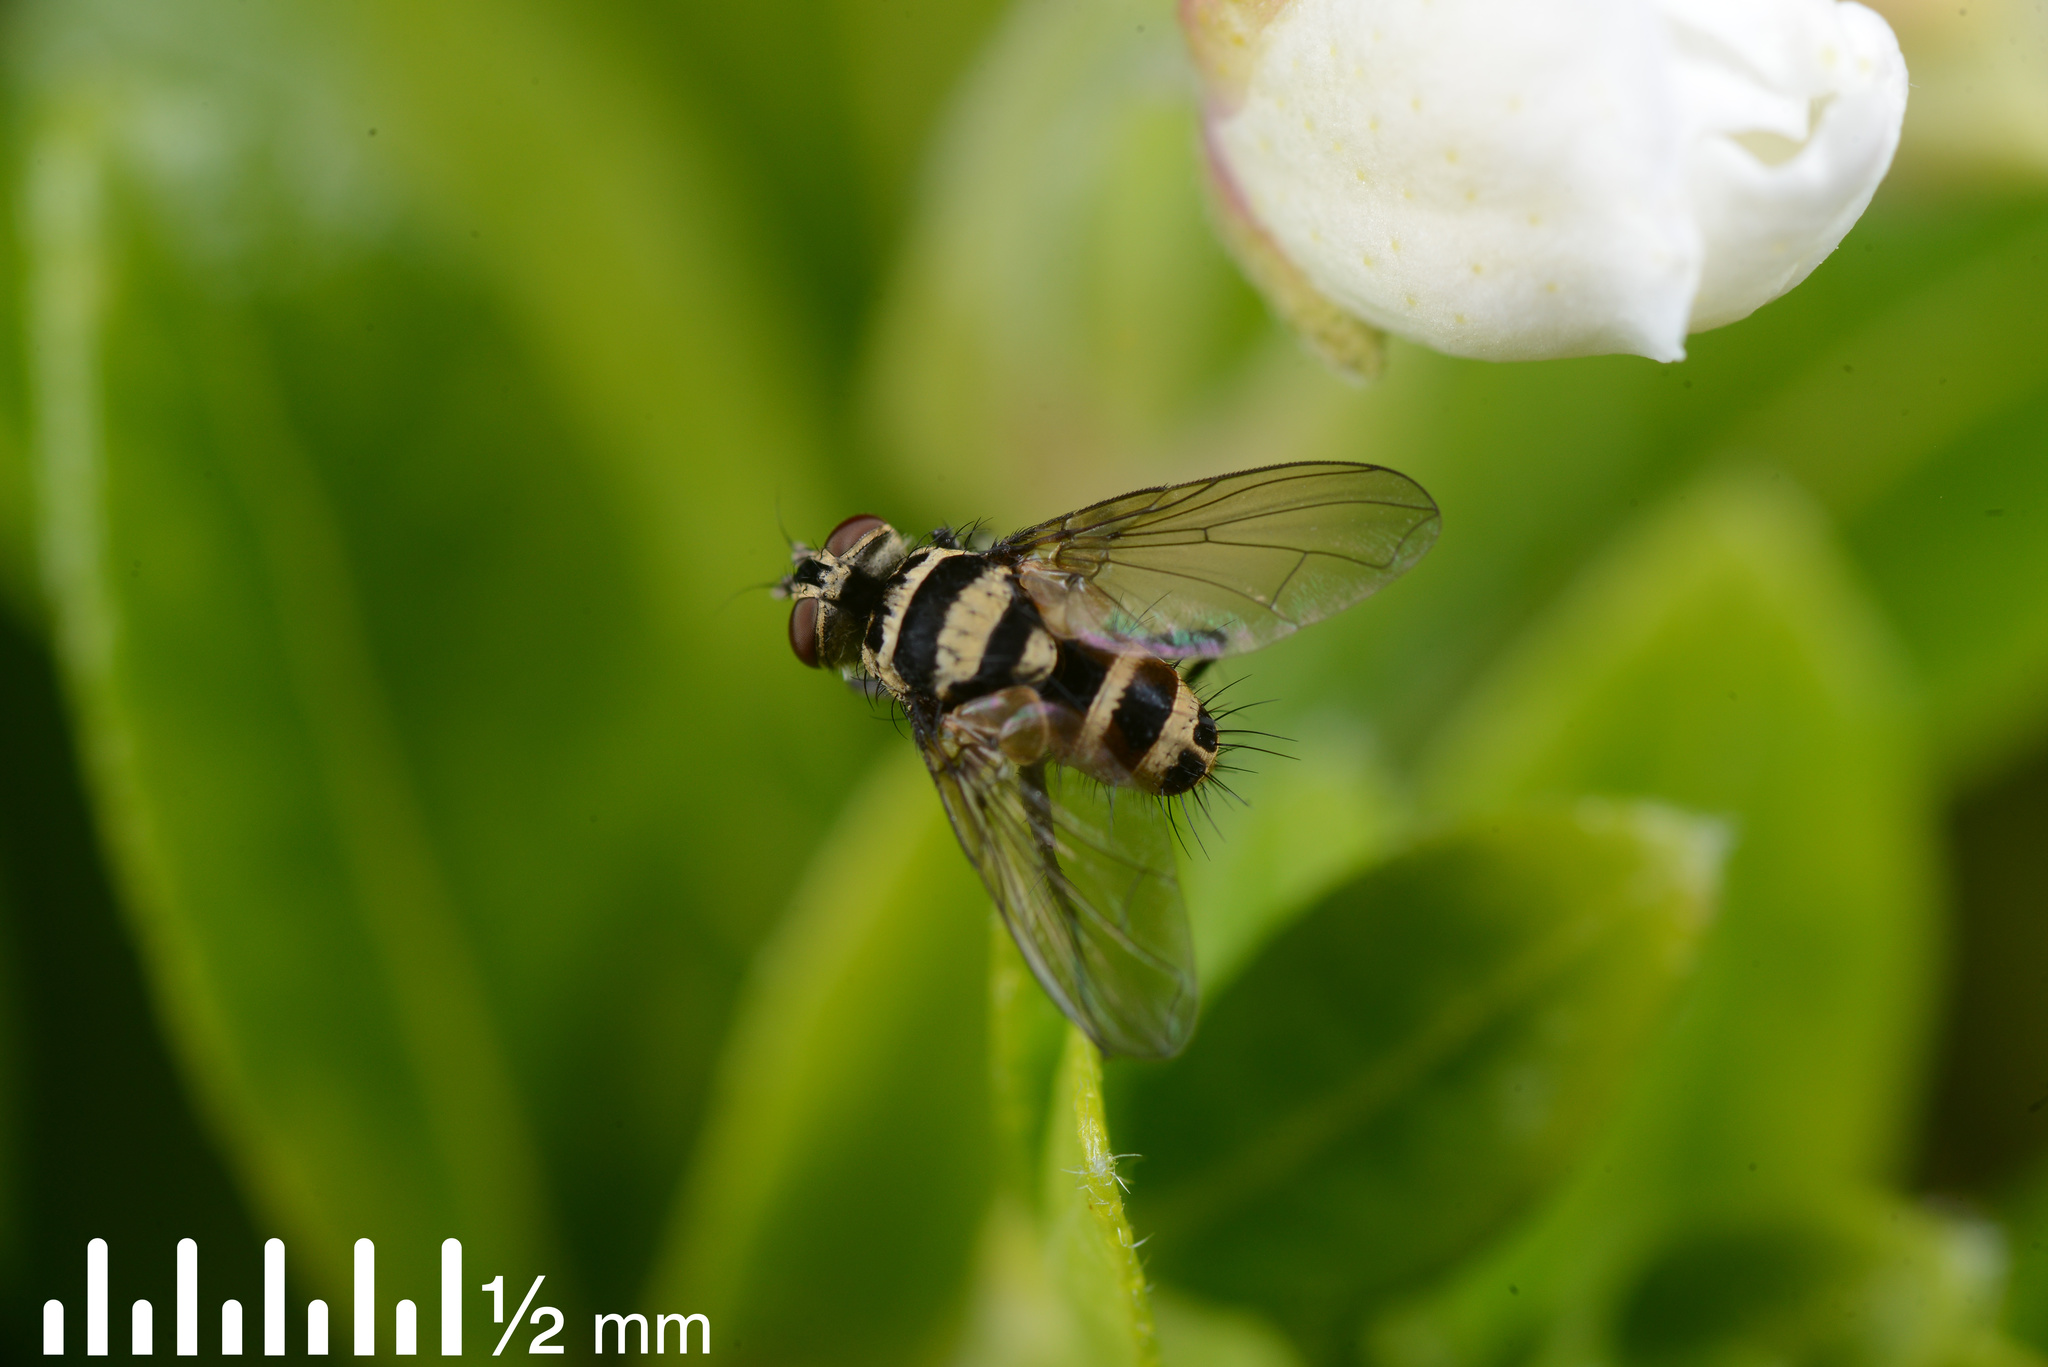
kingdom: Animalia
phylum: Arthropoda
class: Insecta
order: Diptera
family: Tachinidae
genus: Trigonospila
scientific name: Trigonospila brevifacies
